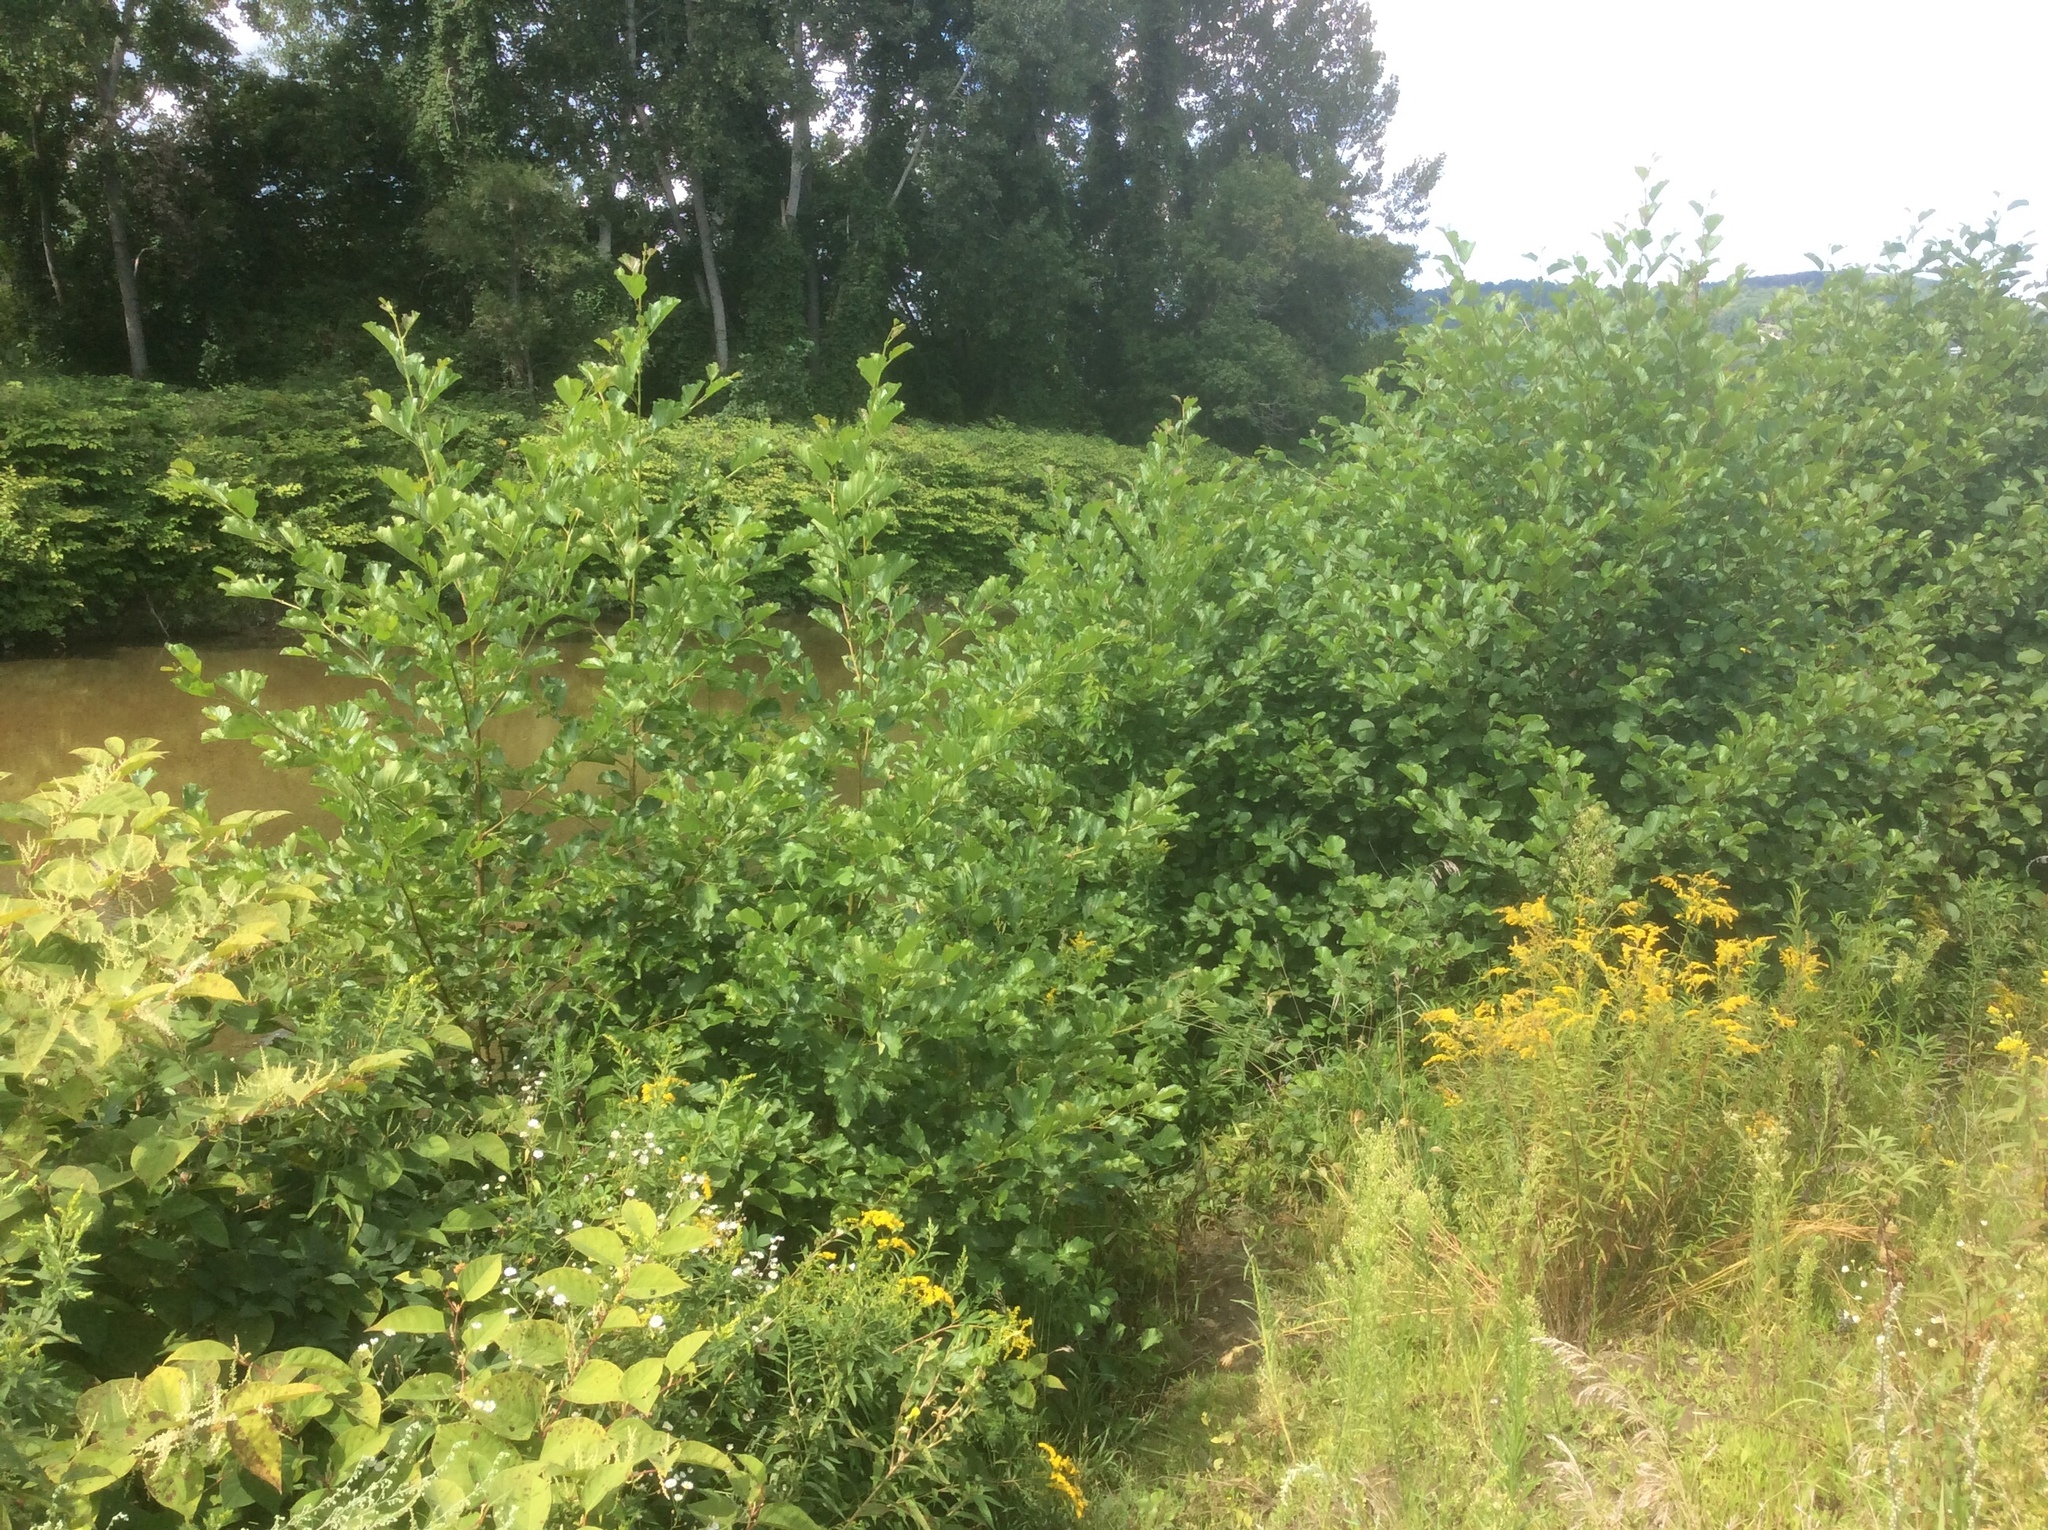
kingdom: Plantae
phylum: Tracheophyta
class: Magnoliopsida
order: Fagales
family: Betulaceae
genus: Alnus
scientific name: Alnus glutinosa
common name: Black alder
